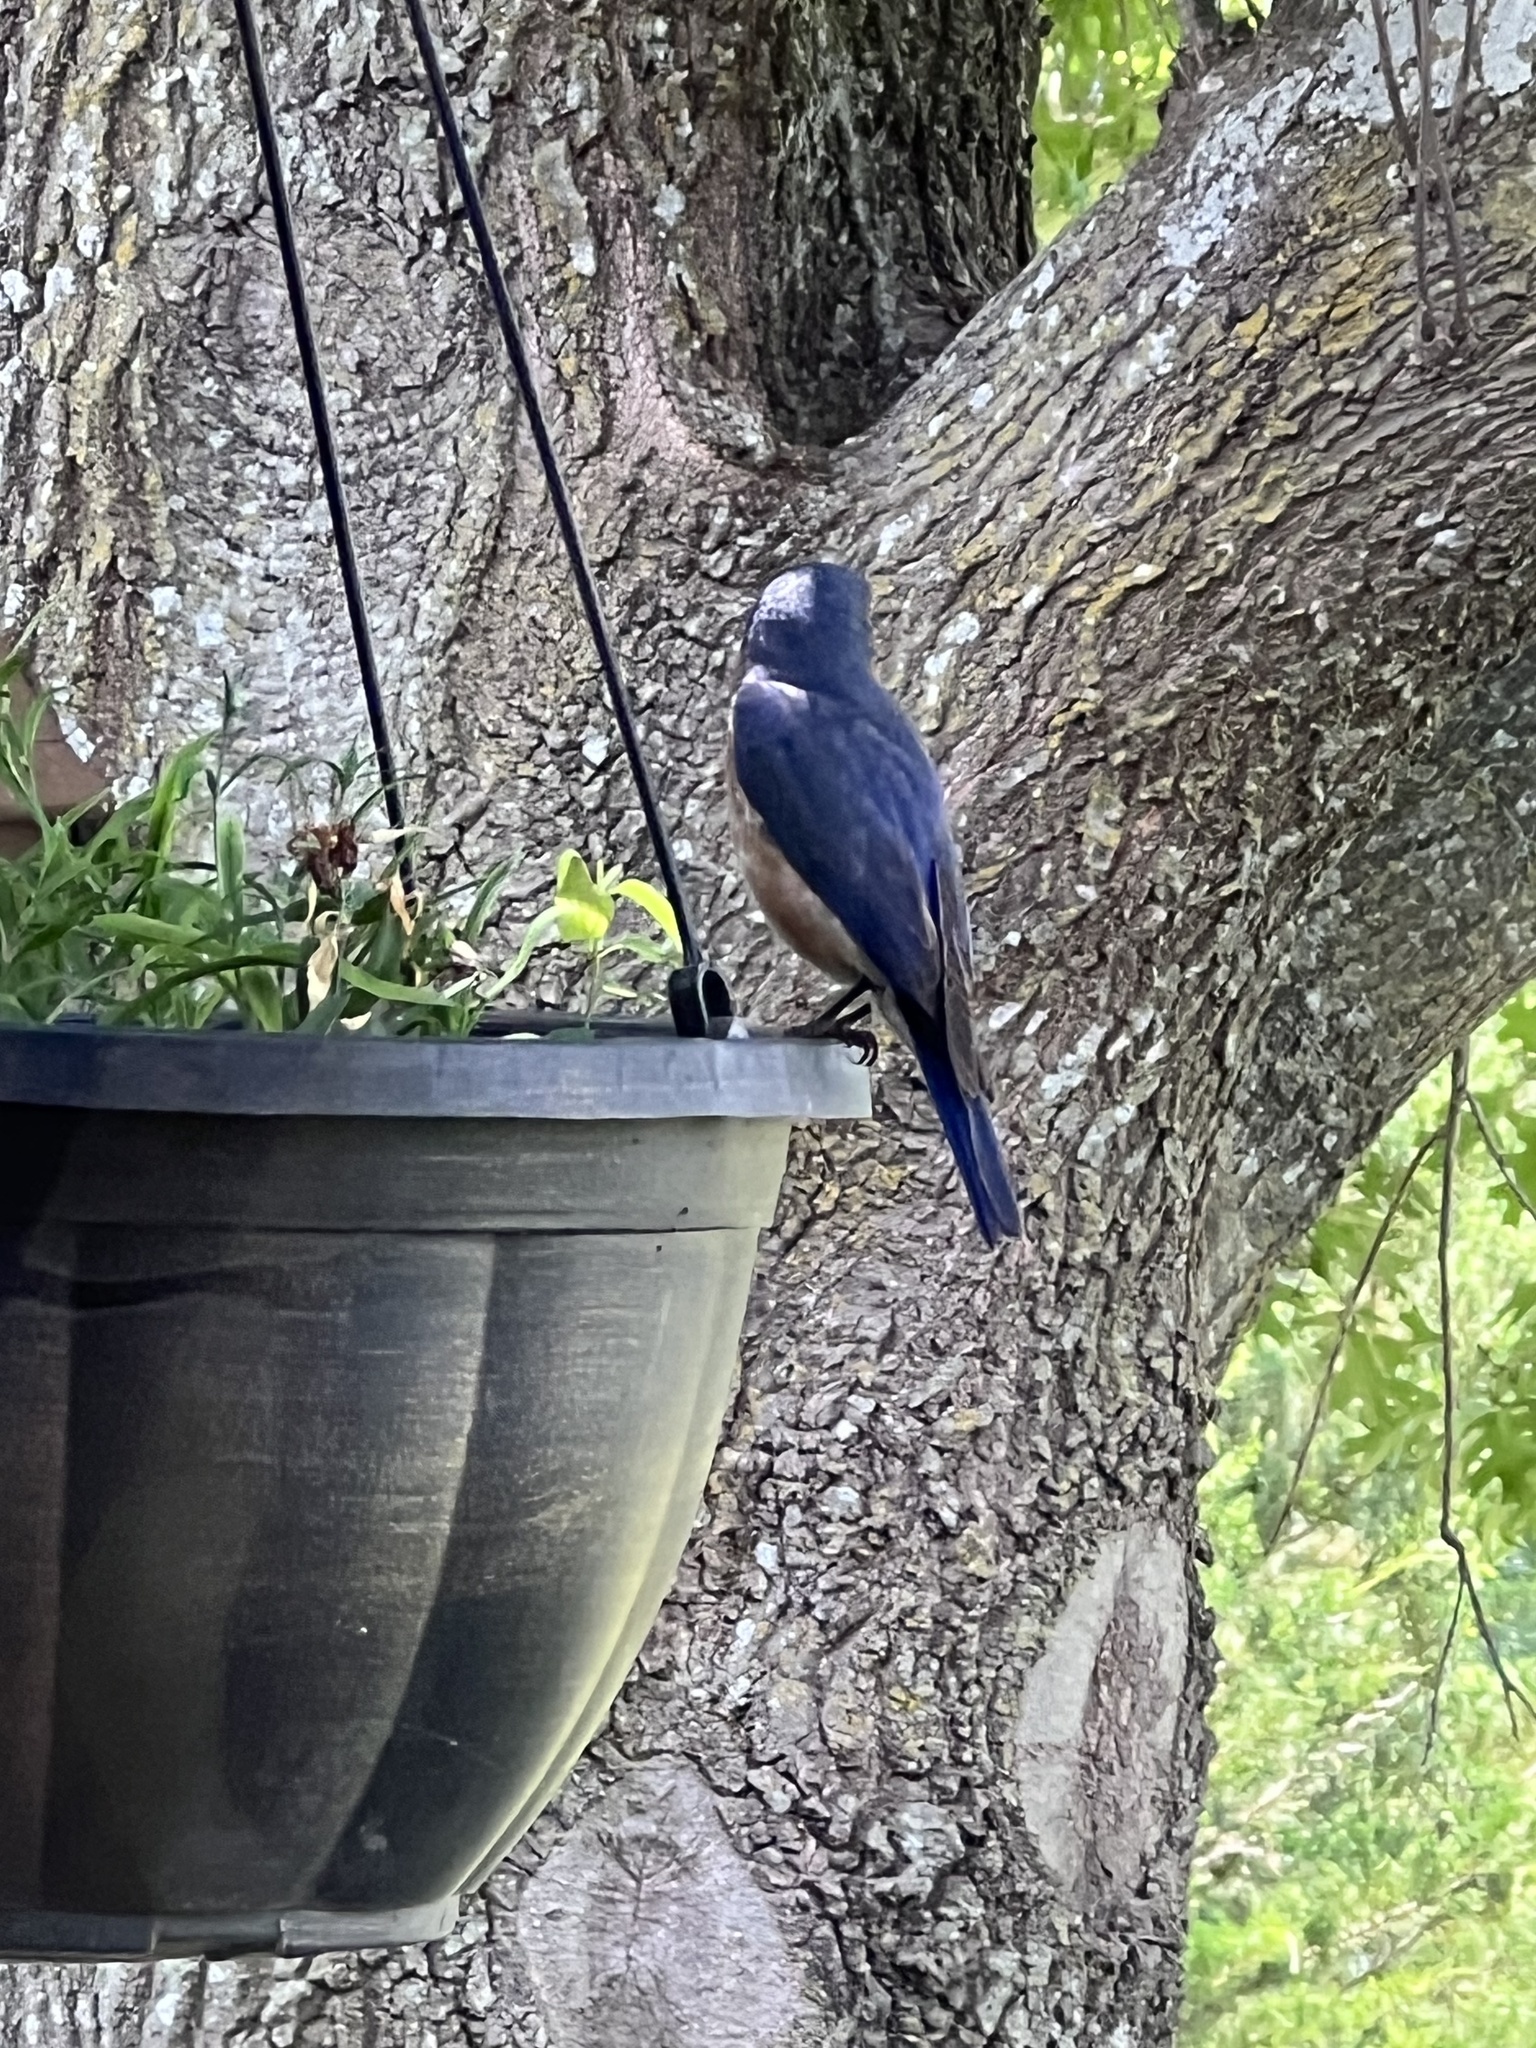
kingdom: Animalia
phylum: Chordata
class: Aves
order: Passeriformes
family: Turdidae
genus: Sialia
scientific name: Sialia sialis
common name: Eastern bluebird
